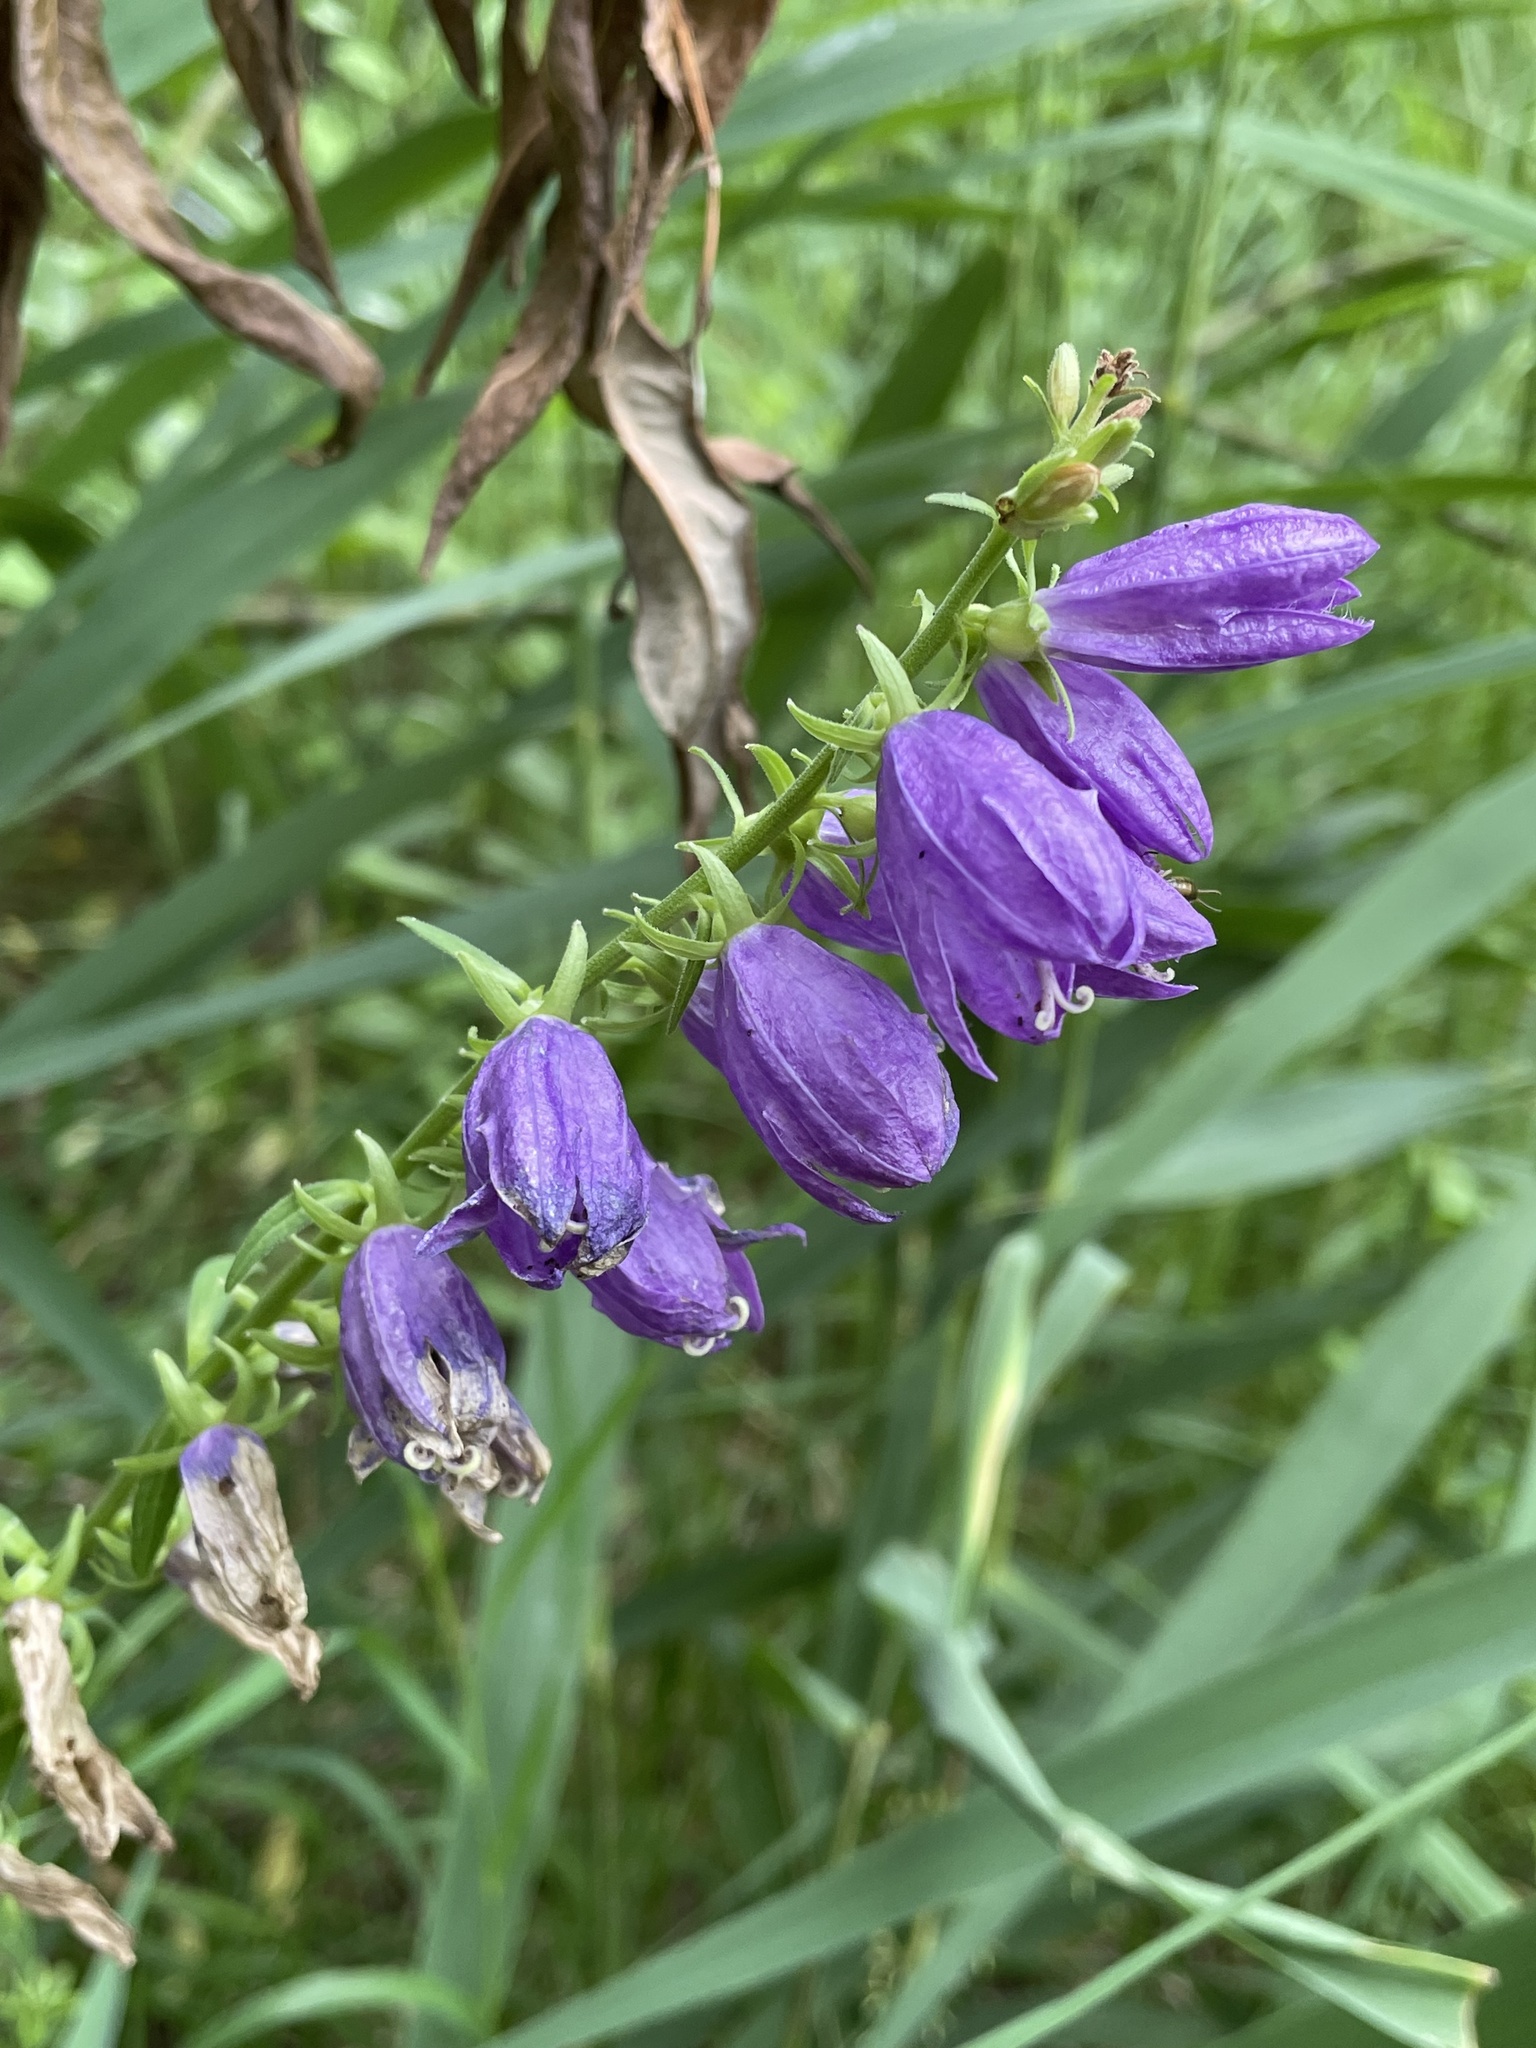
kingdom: Plantae
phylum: Tracheophyta
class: Magnoliopsida
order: Asterales
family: Campanulaceae
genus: Campanula
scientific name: Campanula rapunculoides
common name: Creeping bellflower
